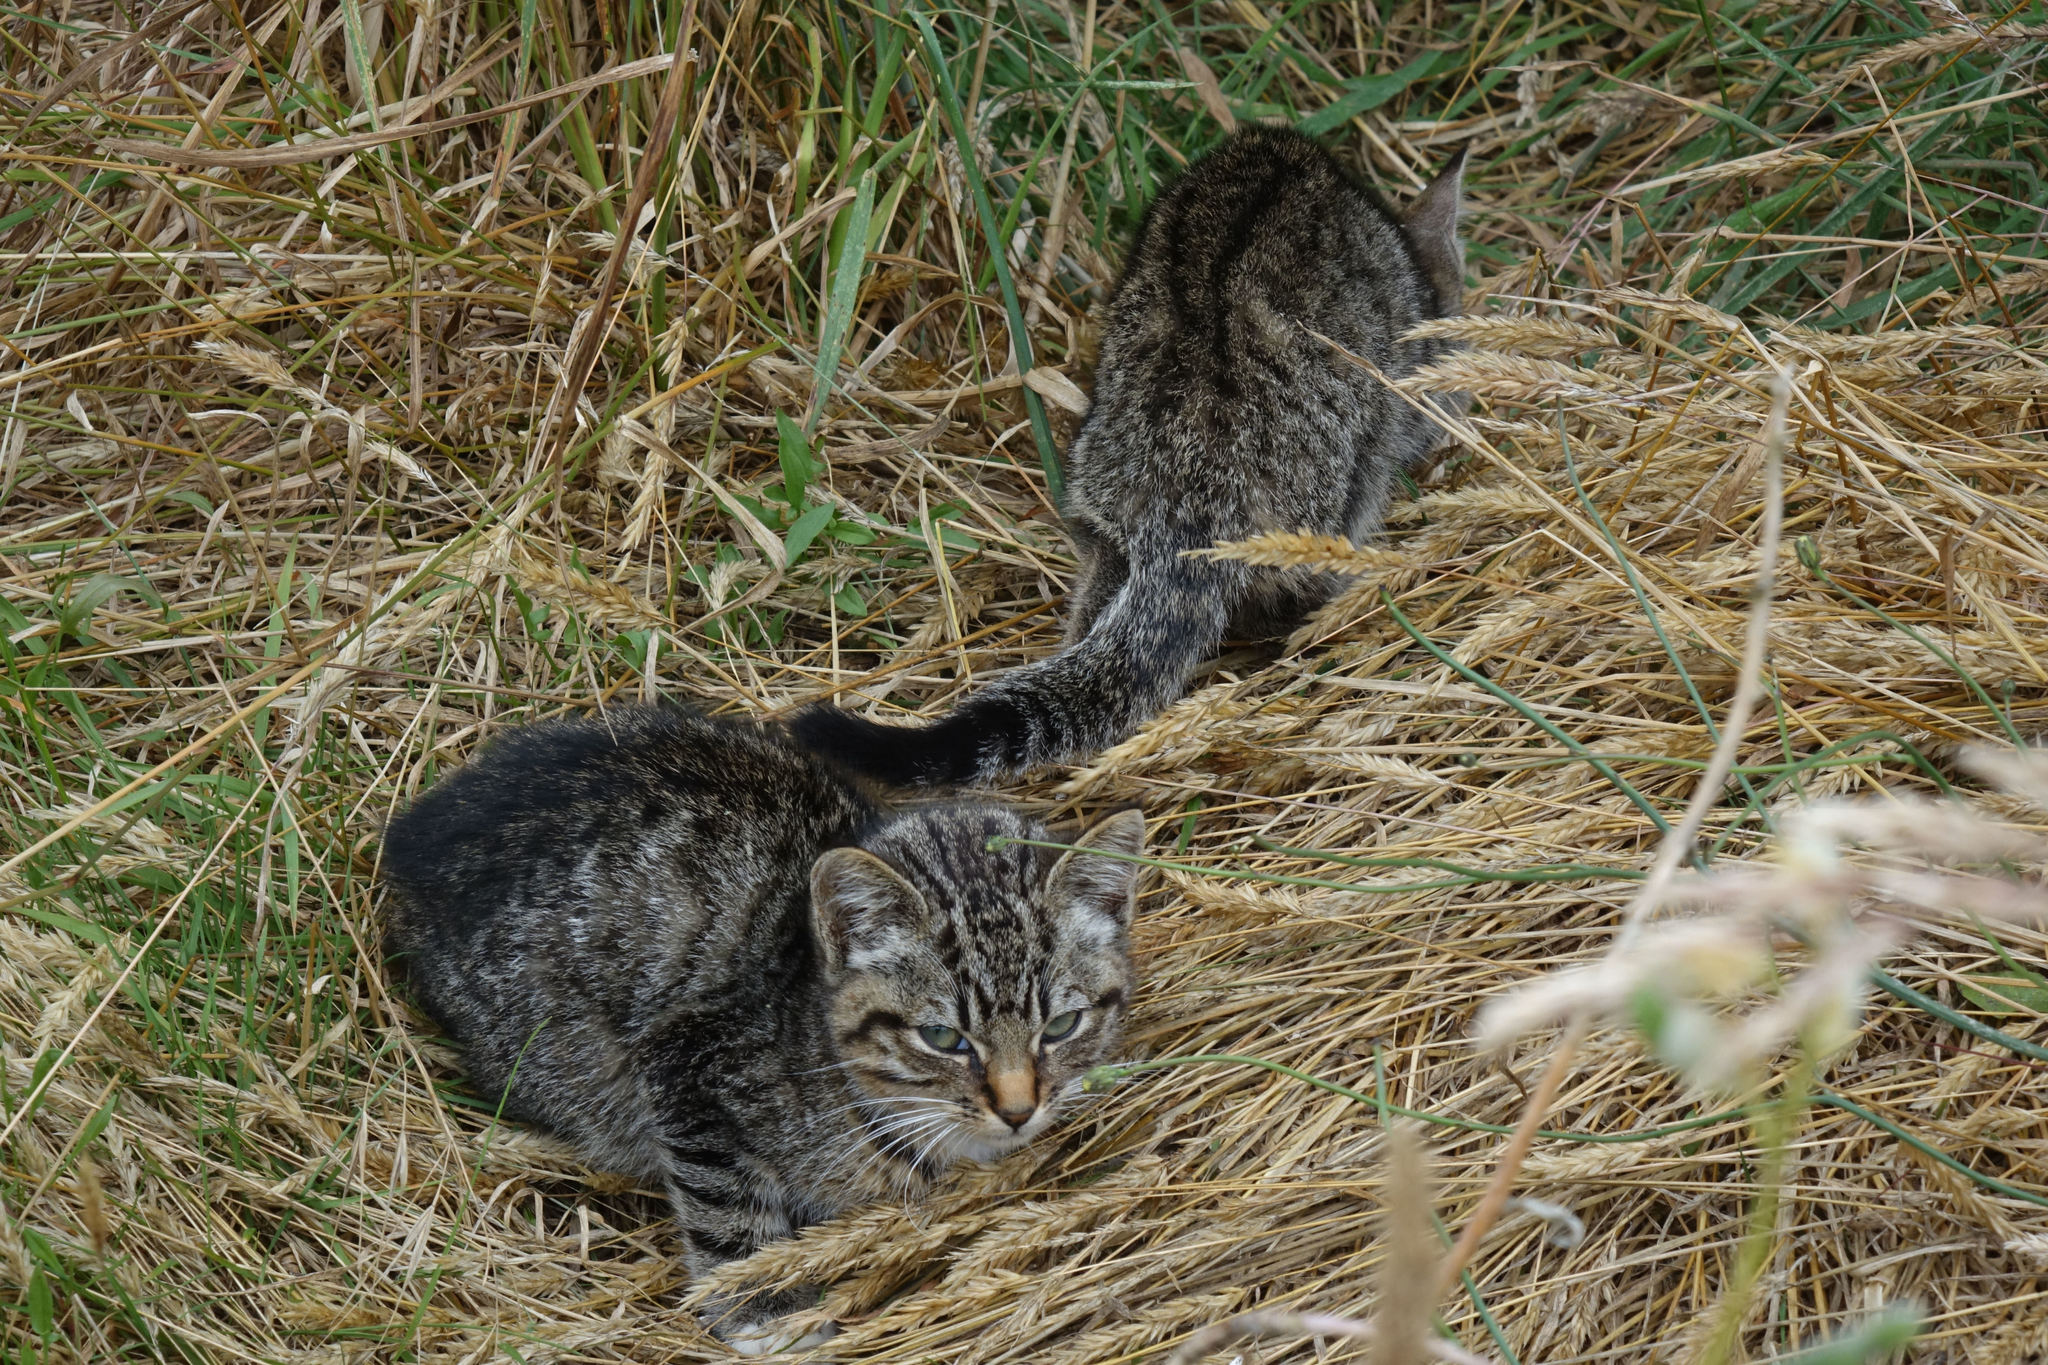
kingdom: Animalia
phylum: Chordata
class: Mammalia
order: Carnivora
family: Felidae
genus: Felis
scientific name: Felis catus
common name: Domestic cat
